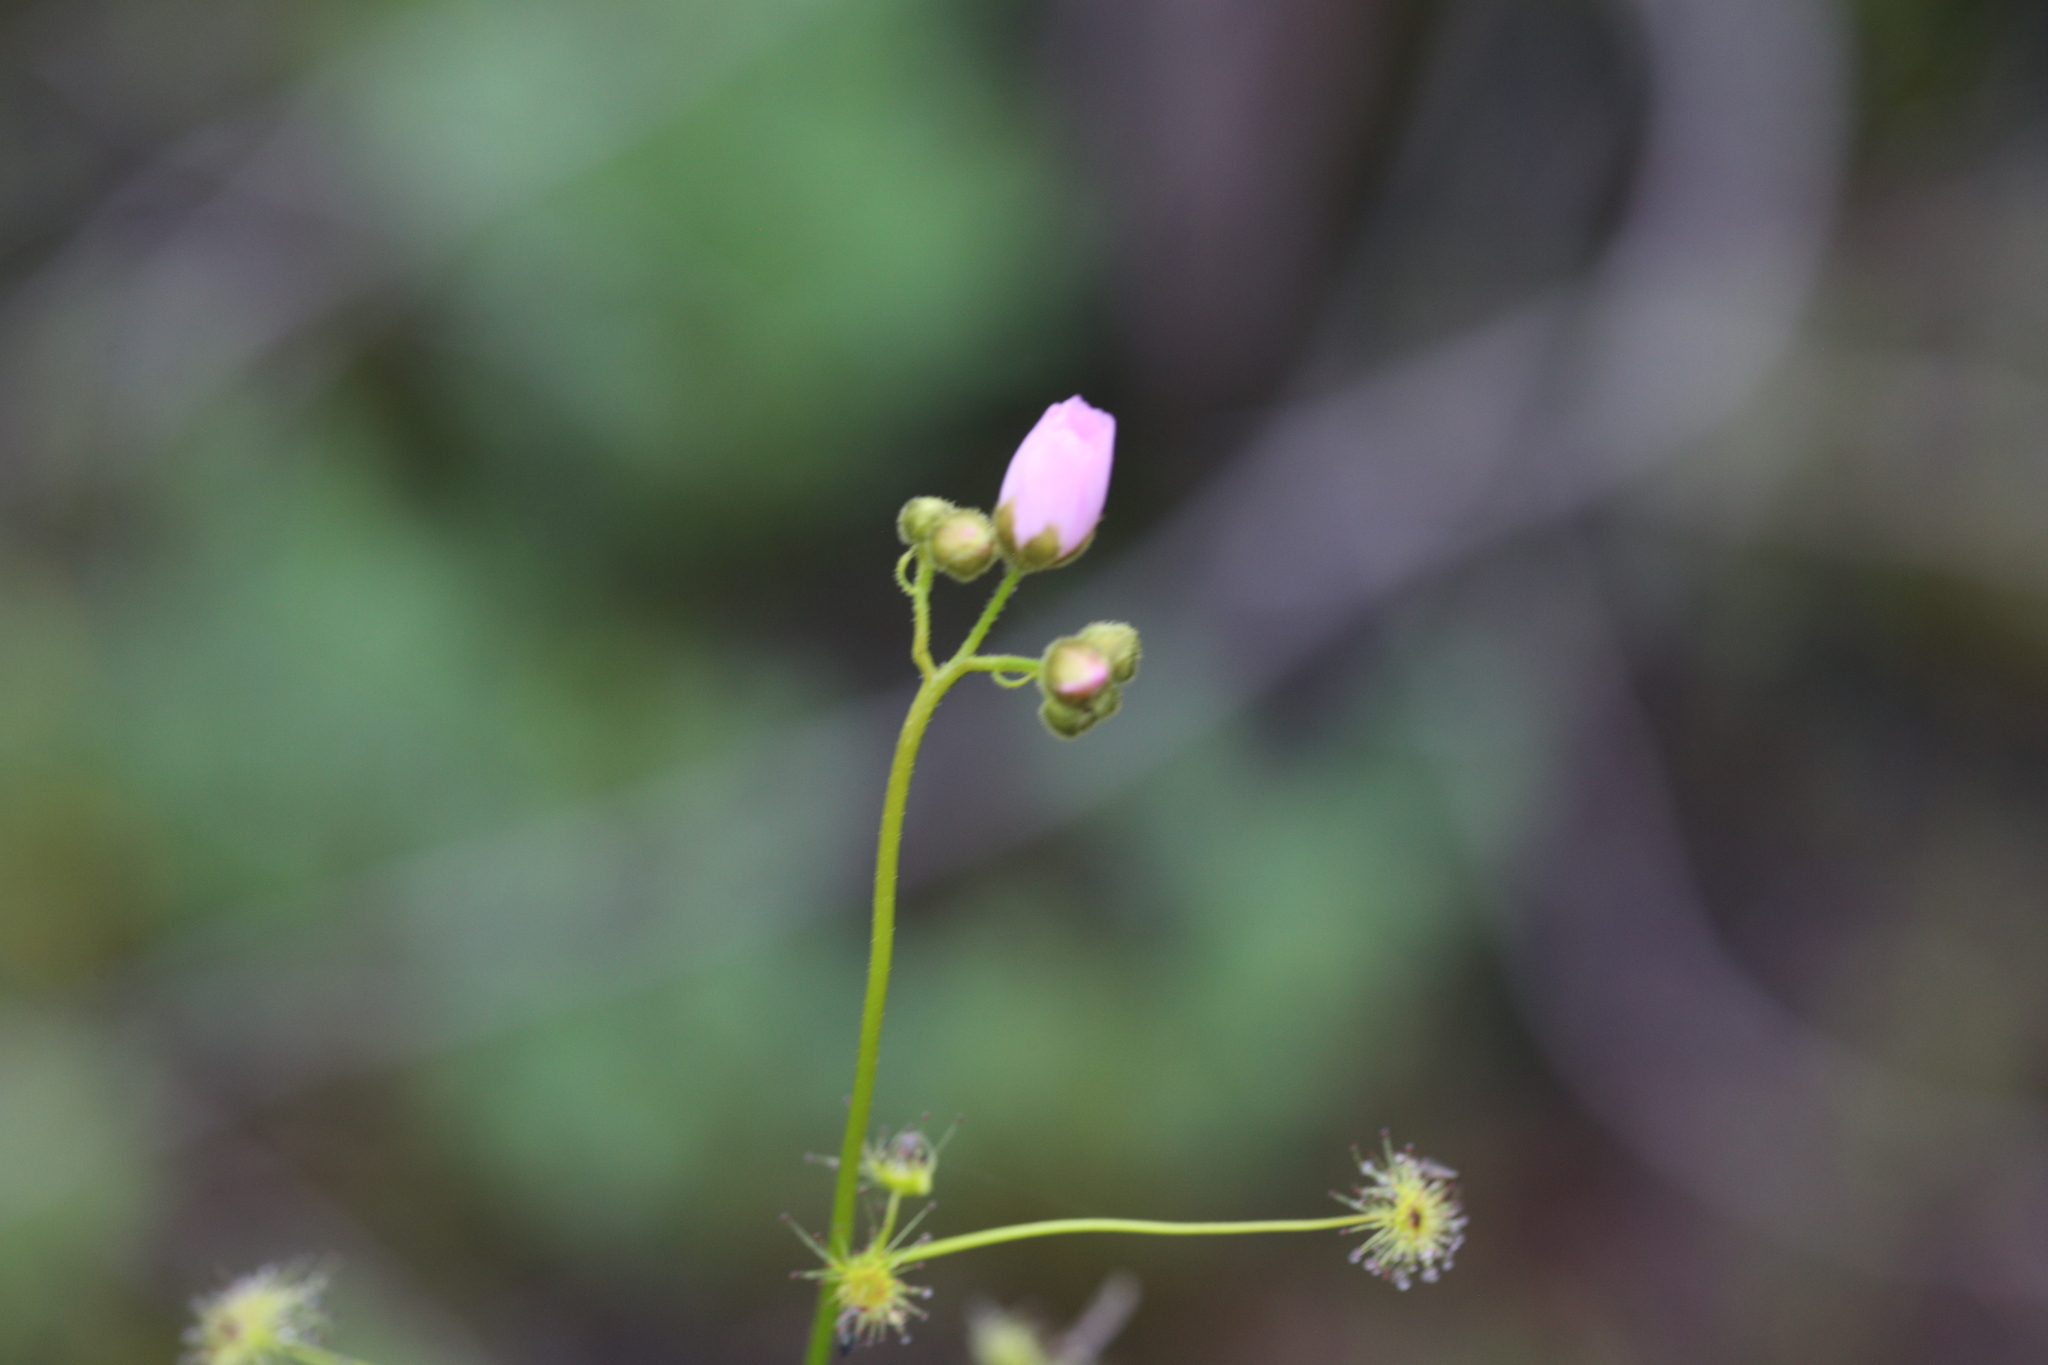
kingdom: Plantae
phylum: Tracheophyta
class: Magnoliopsida
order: Caryophyllales
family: Droseraceae
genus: Drosera
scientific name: Drosera neesii
